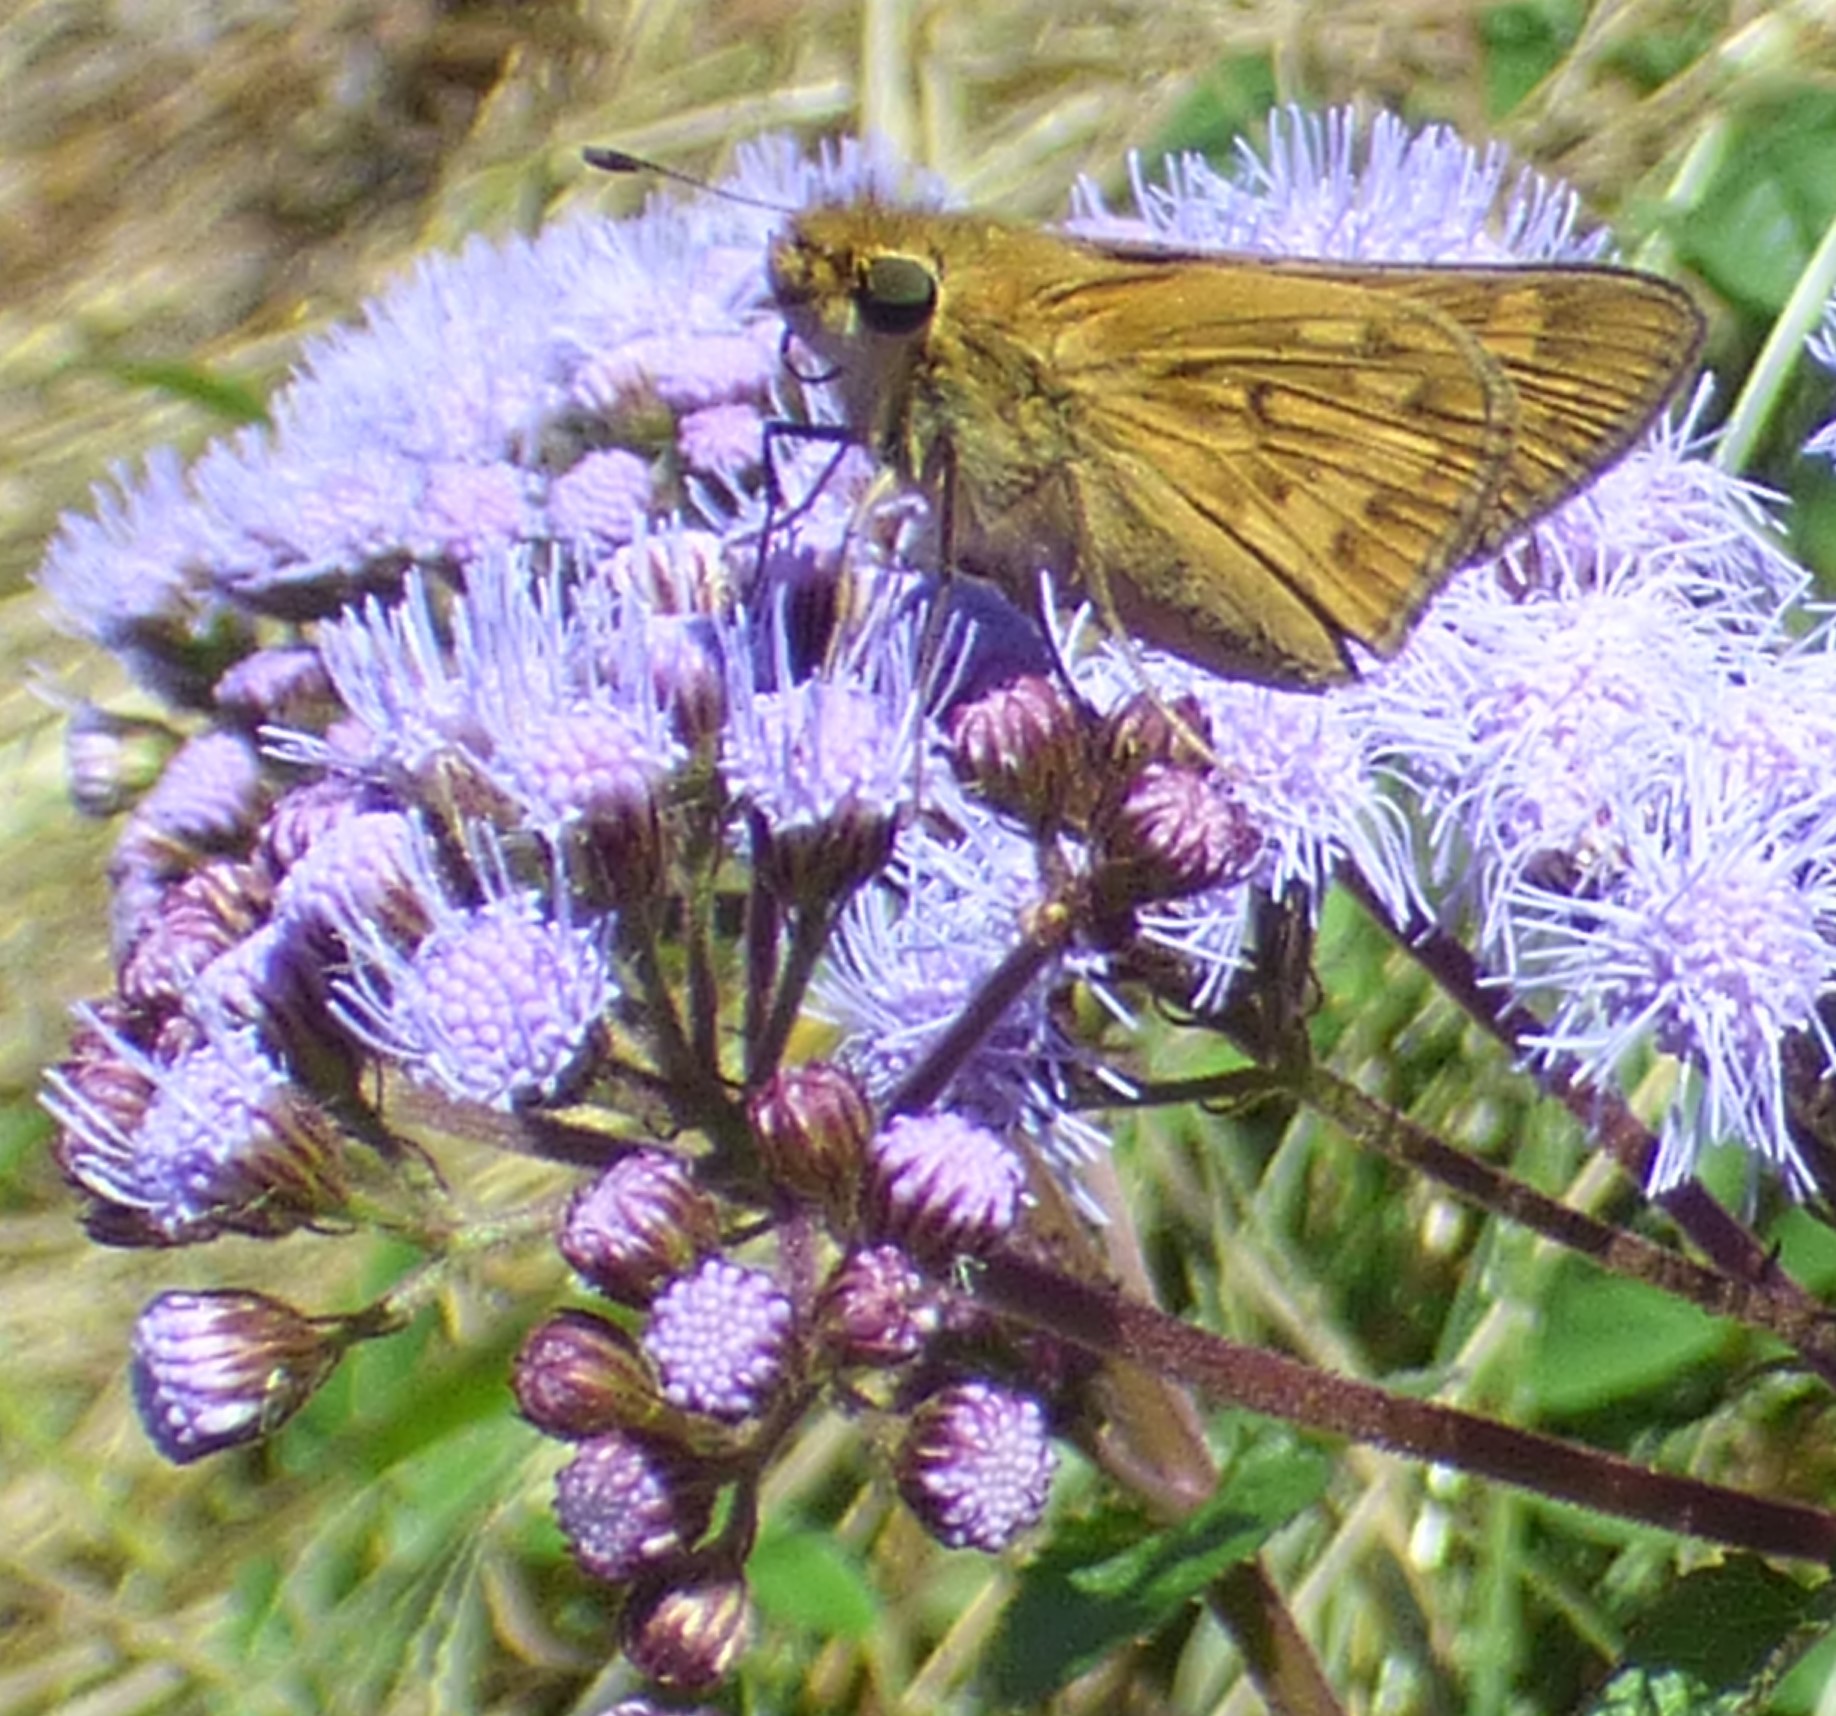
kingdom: Animalia
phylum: Arthropoda
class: Insecta
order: Lepidoptera
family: Hesperiidae
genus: Hylephila
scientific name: Hylephila phyleus
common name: Fiery skipper
